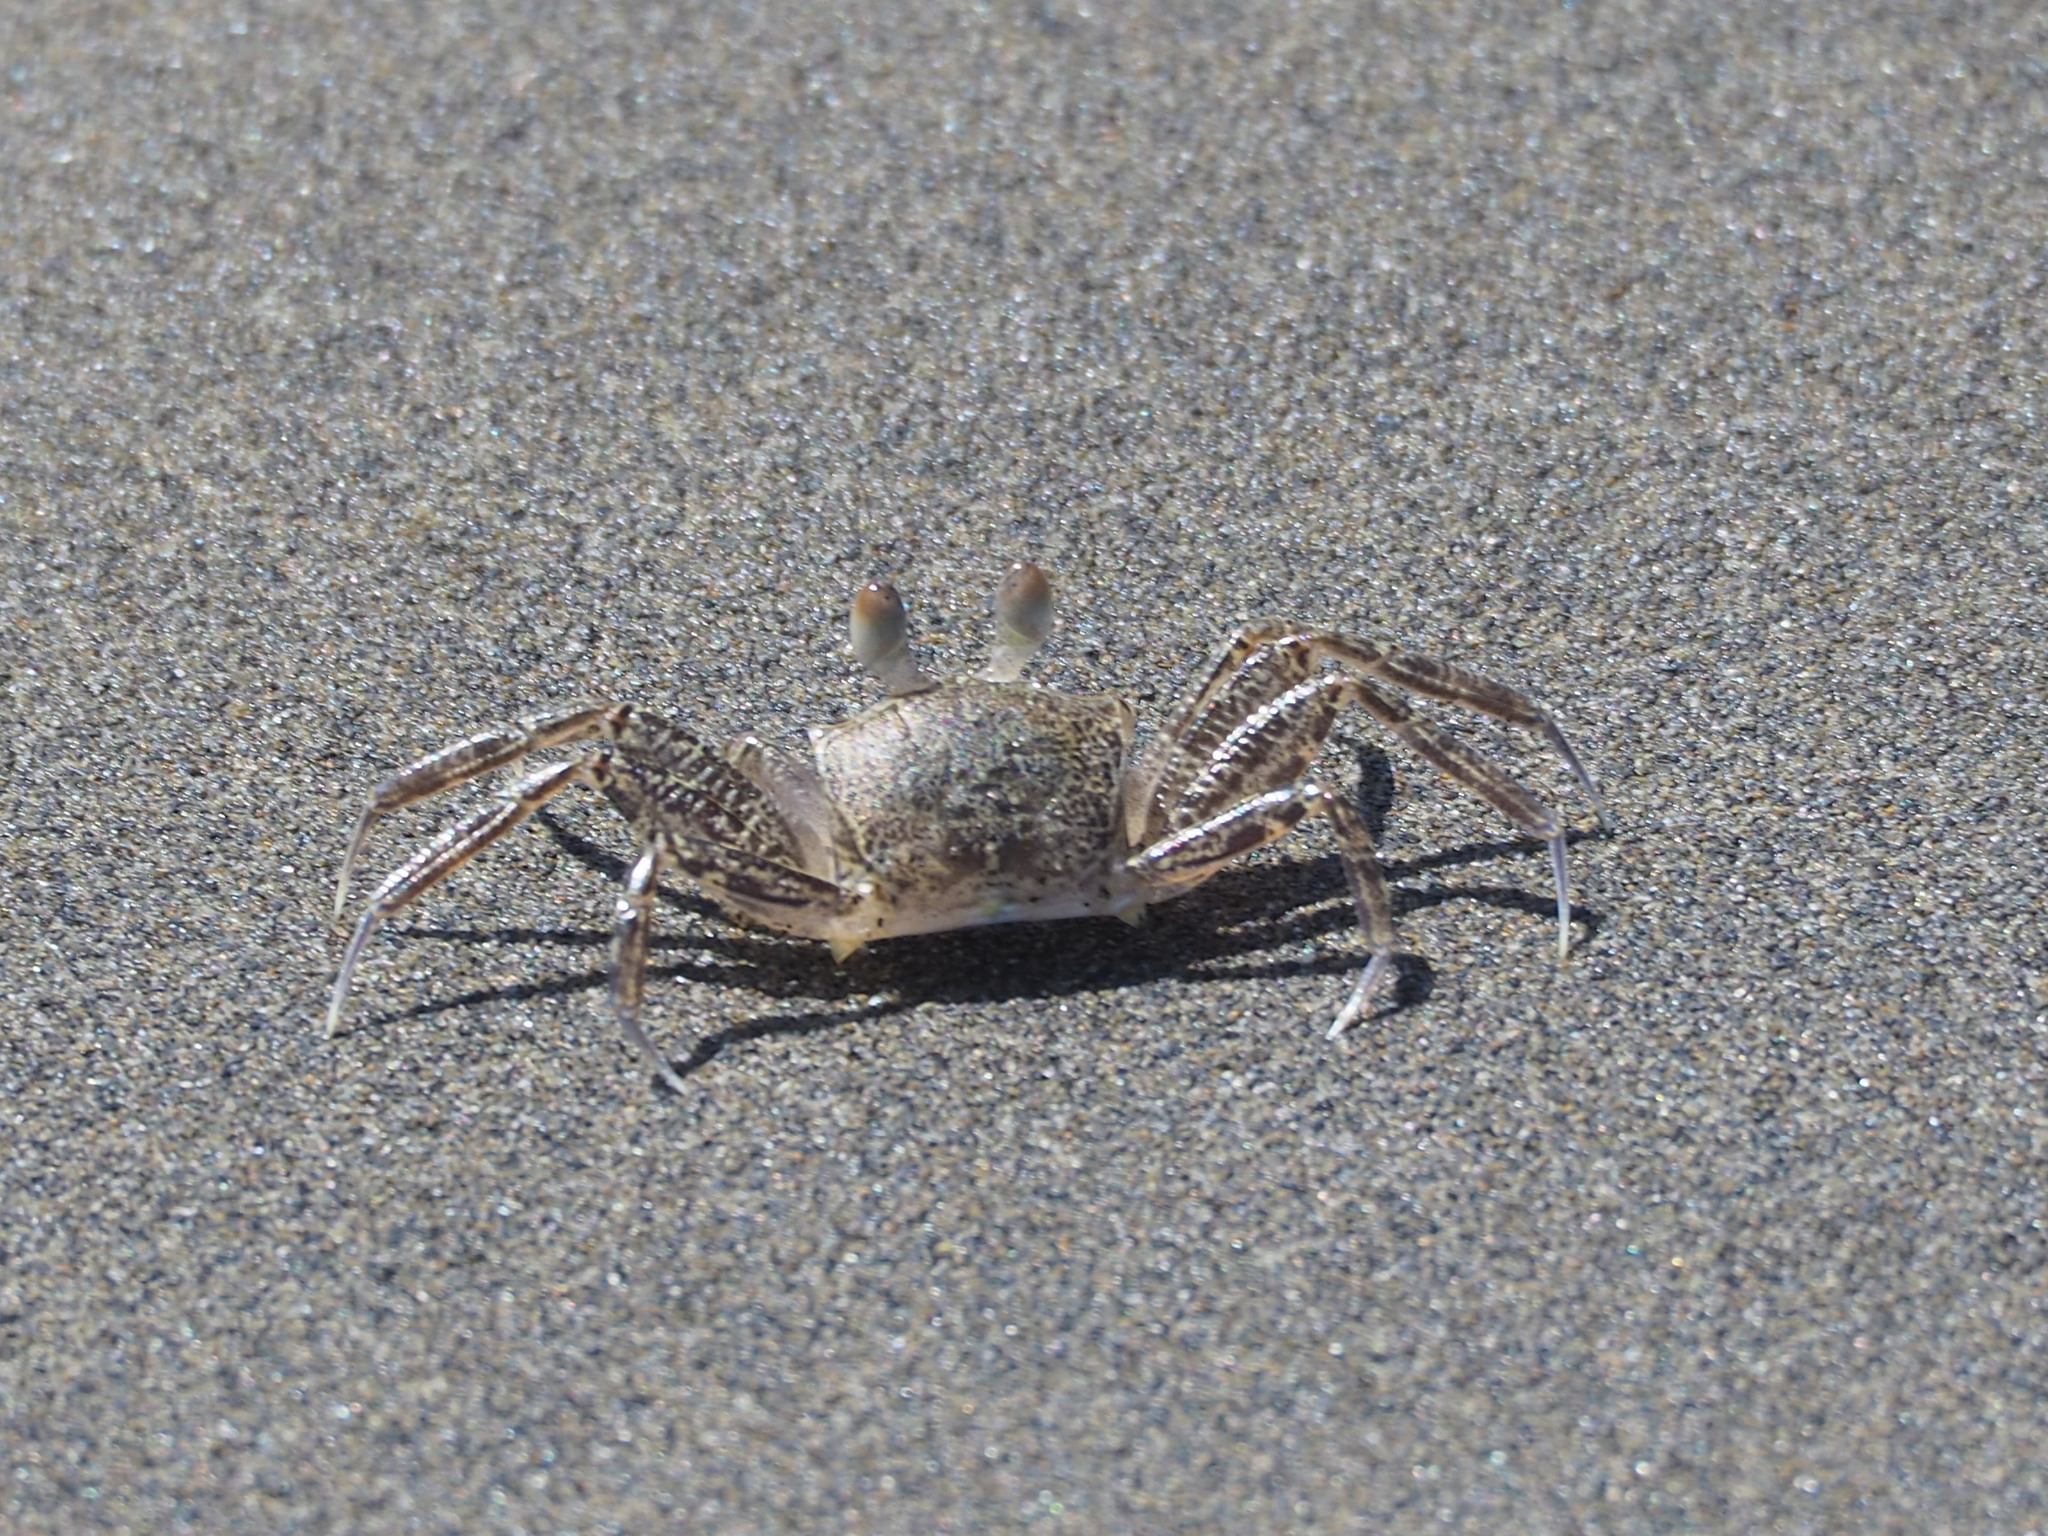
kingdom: Animalia
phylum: Arthropoda
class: Malacostraca
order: Decapoda
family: Ocypodidae
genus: Ocypode
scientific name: Ocypode ceratophthalmus
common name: Indo-pacific ghost crab
